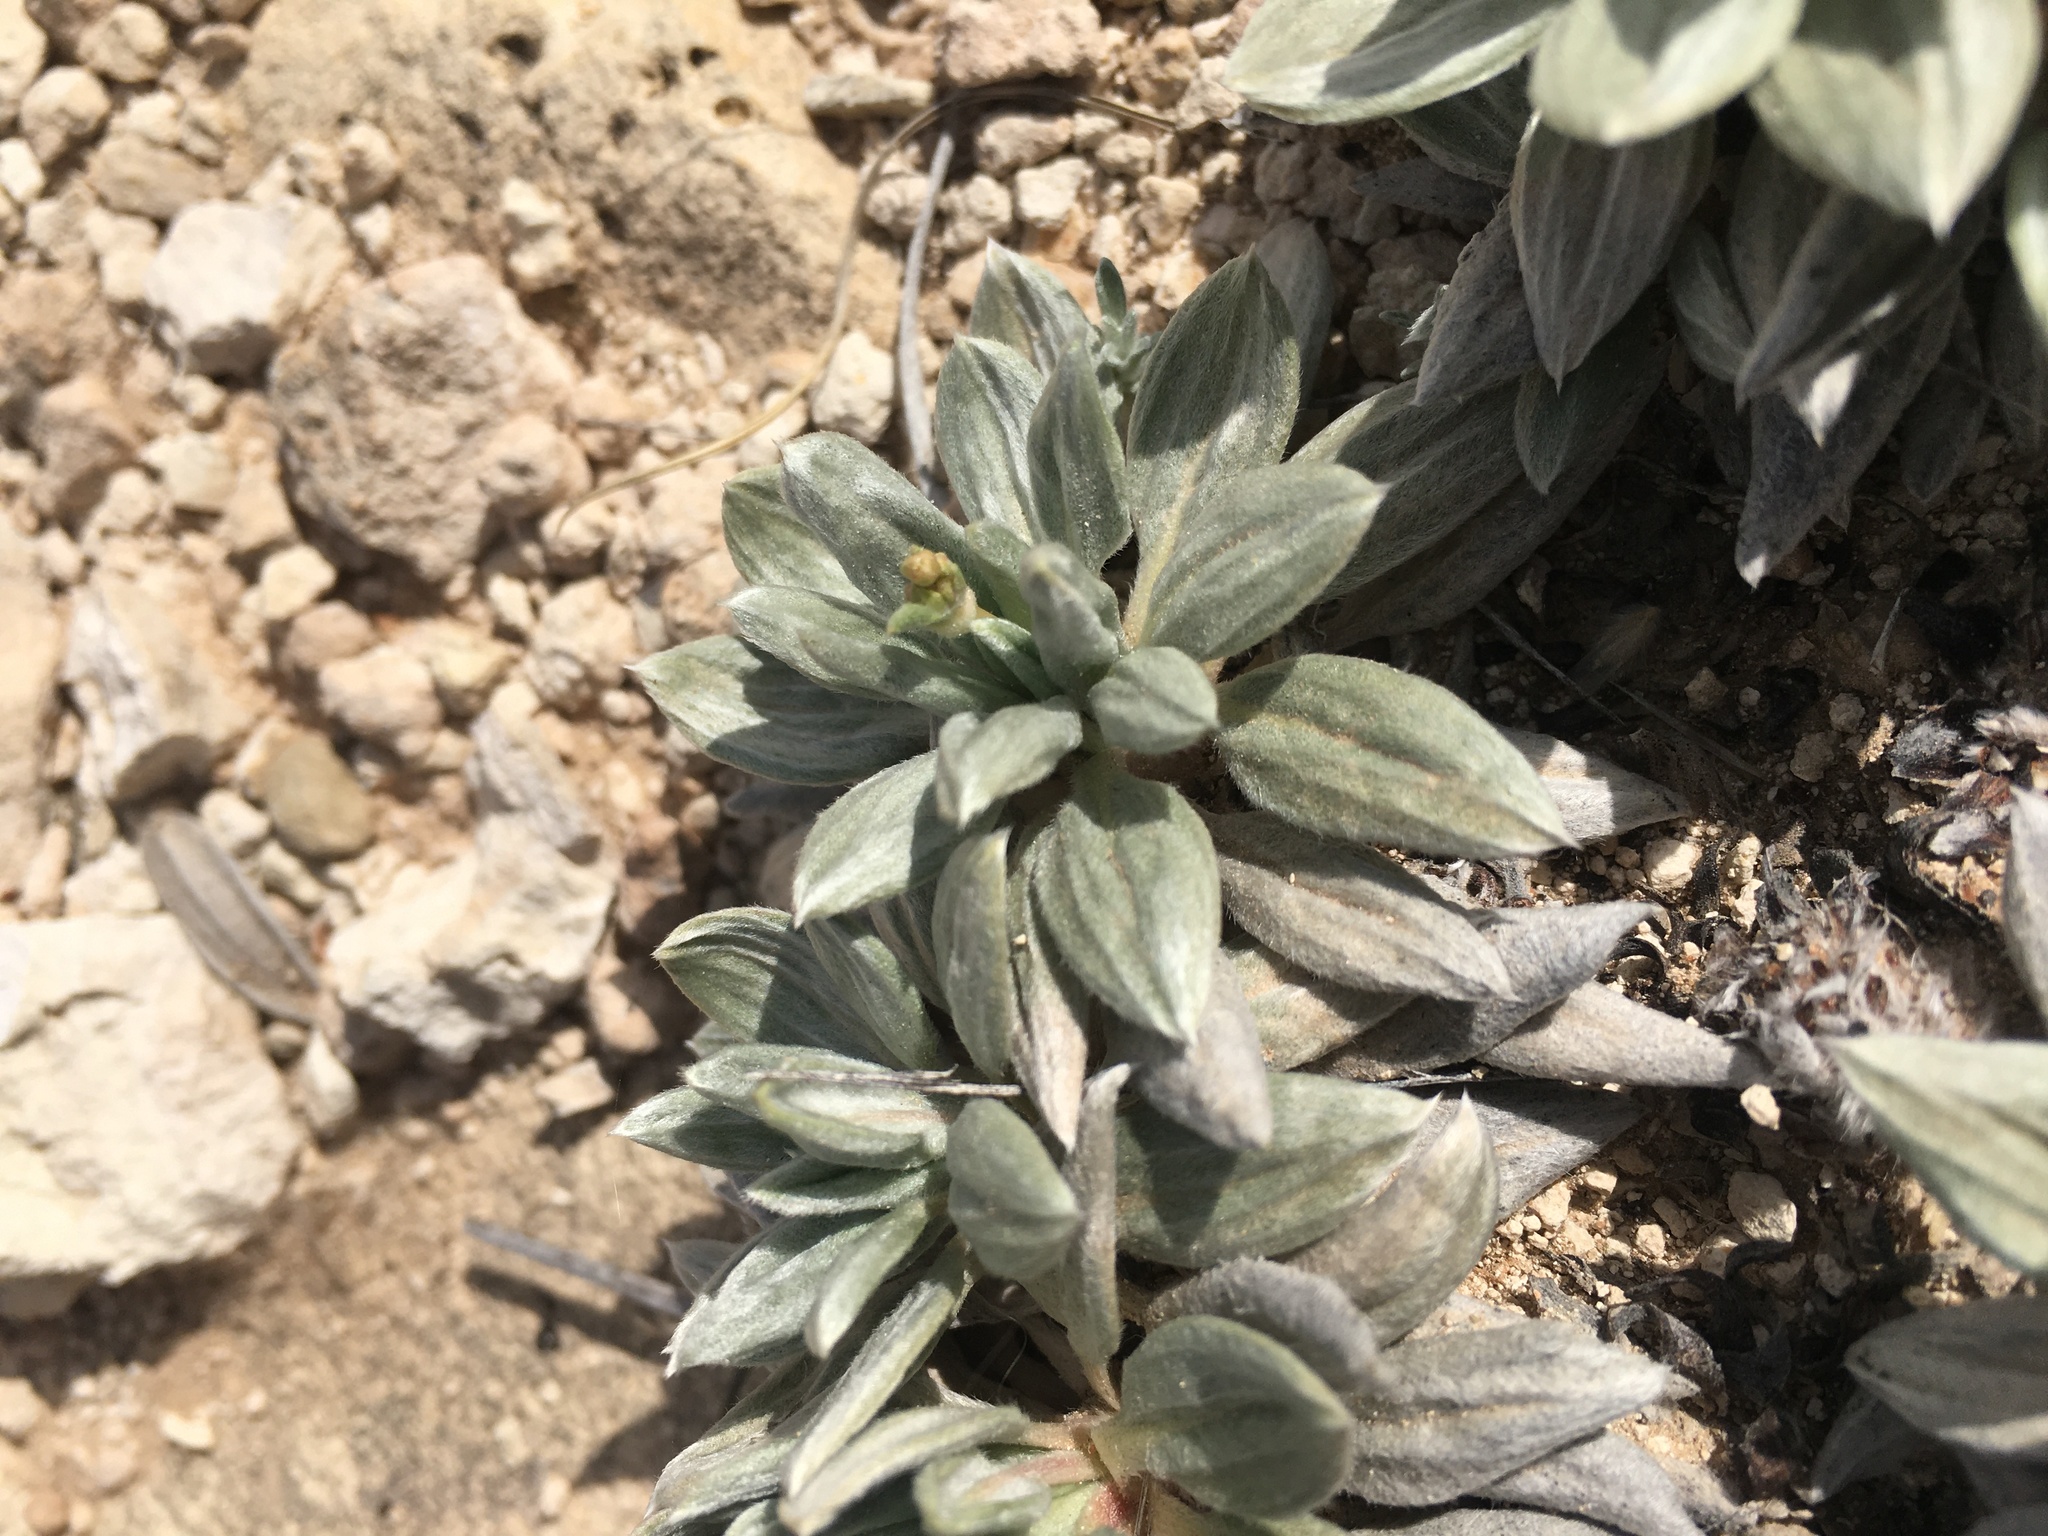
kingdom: Plantae
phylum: Tracheophyta
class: Magnoliopsida
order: Caryophyllales
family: Polygonaceae
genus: Eriogonum
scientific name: Eriogonum havardii
